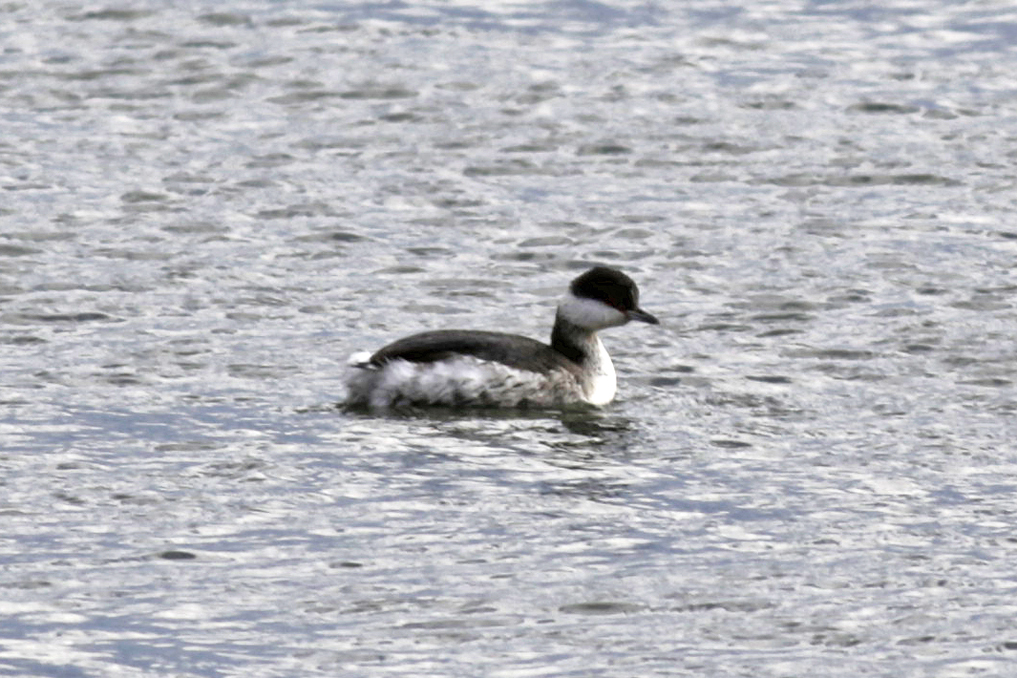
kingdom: Animalia
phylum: Chordata
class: Aves
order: Podicipediformes
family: Podicipedidae
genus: Podiceps
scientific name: Podiceps auritus
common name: Horned grebe
